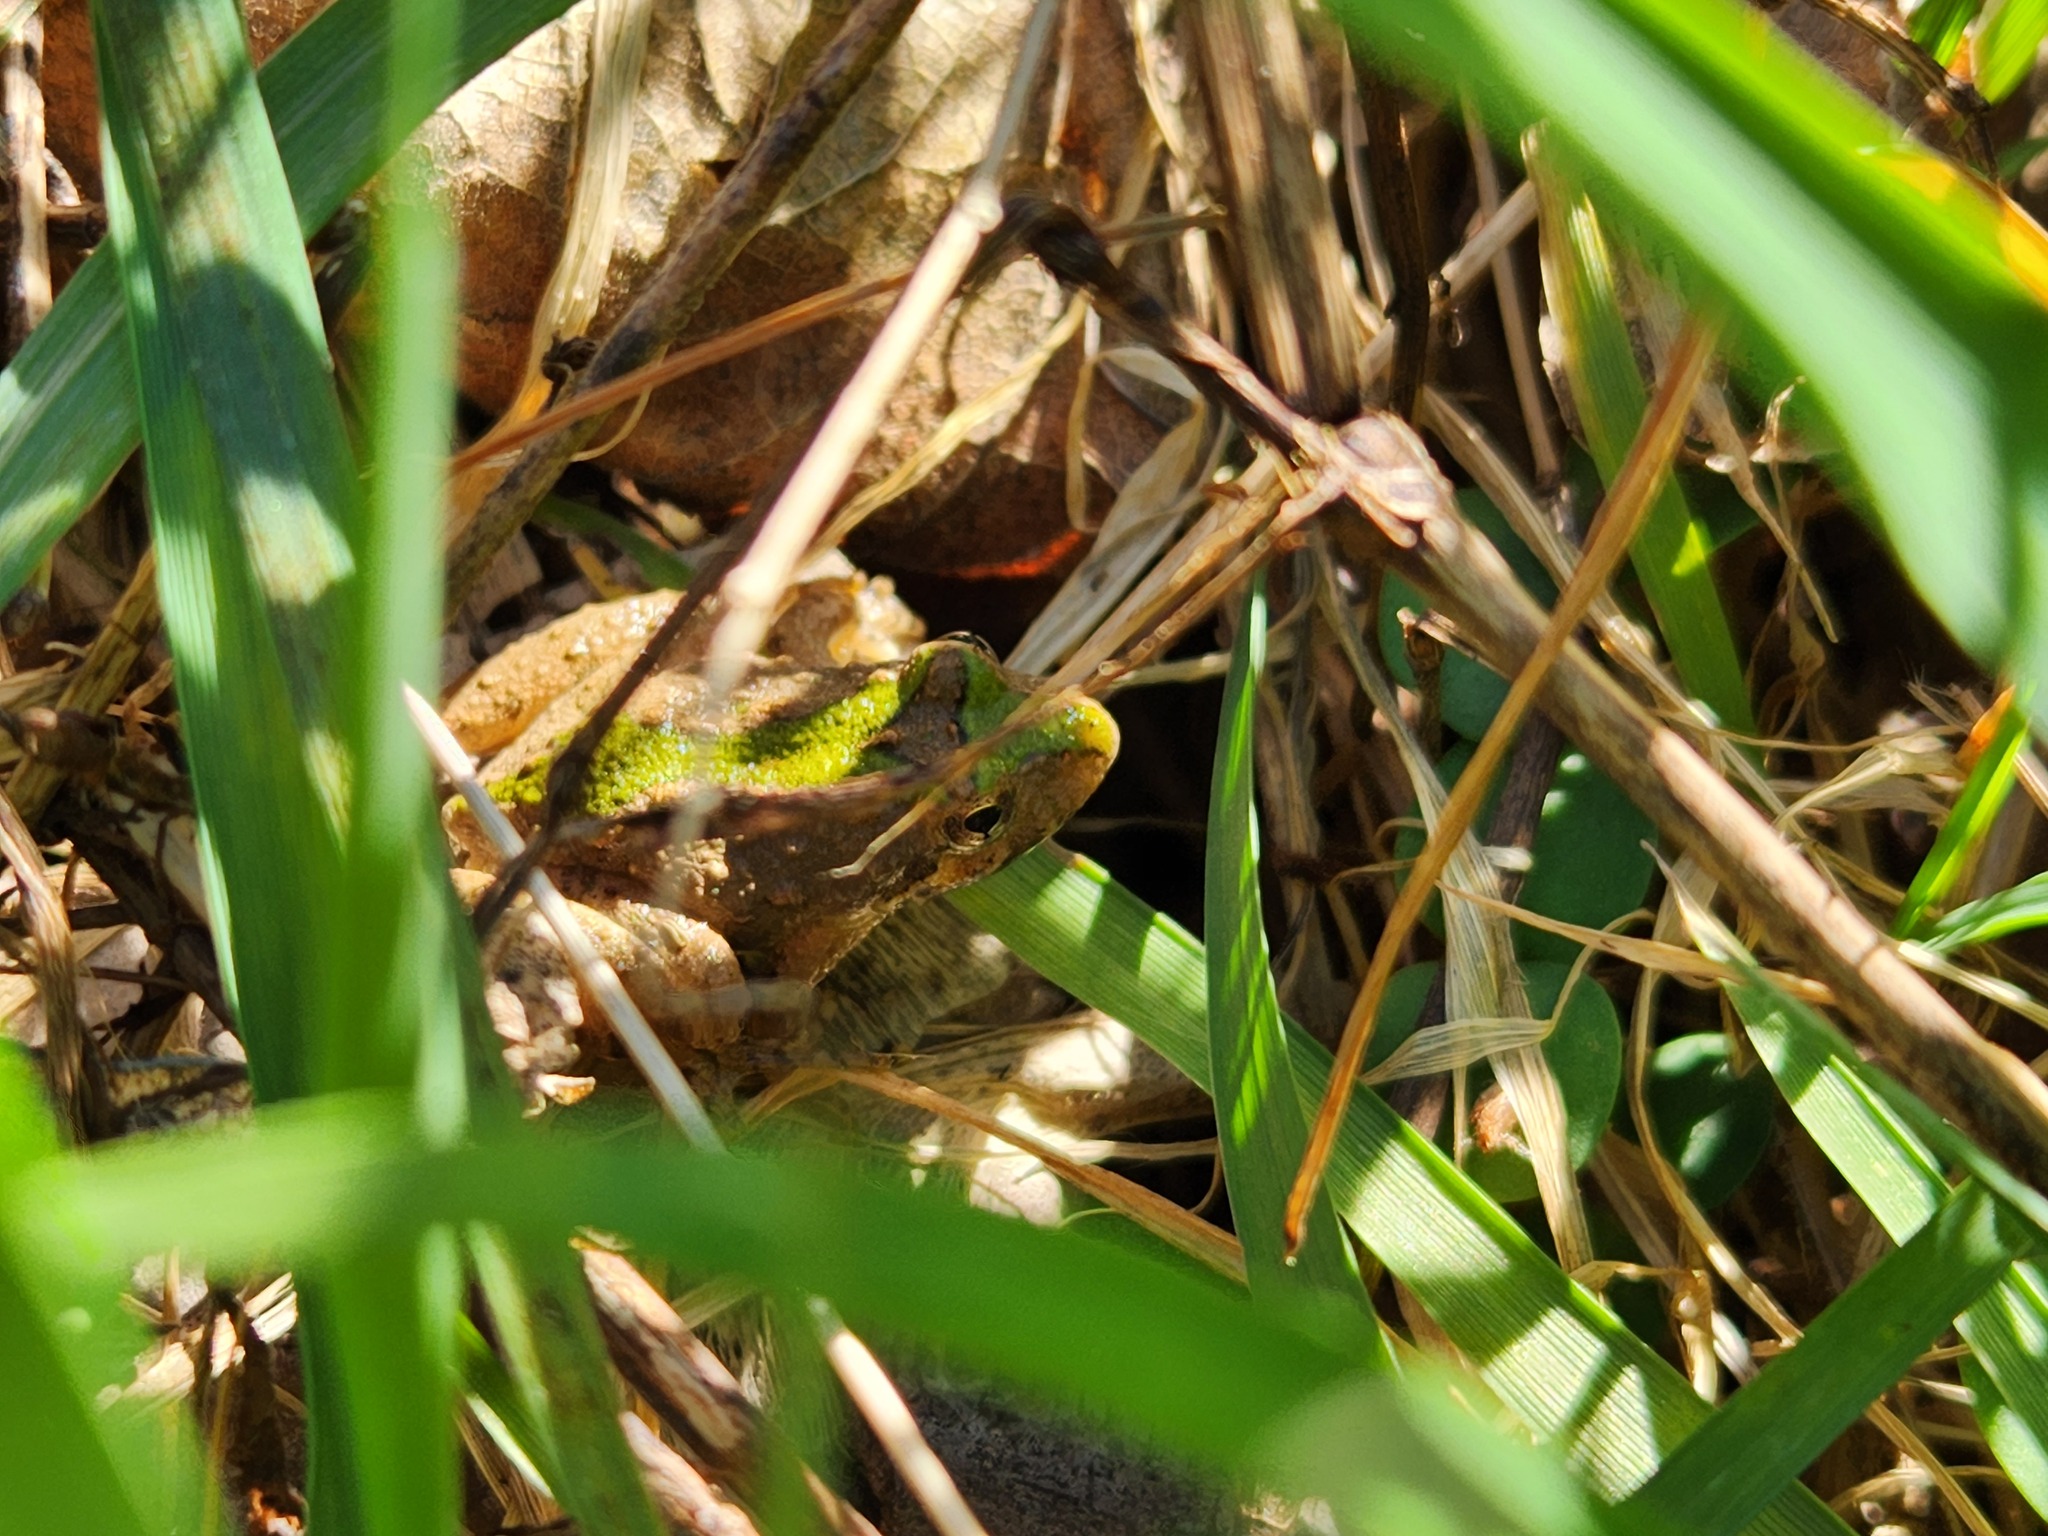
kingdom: Animalia
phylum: Chordata
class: Amphibia
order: Anura
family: Hylidae
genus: Acris
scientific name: Acris crepitans
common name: Northern cricket frog
